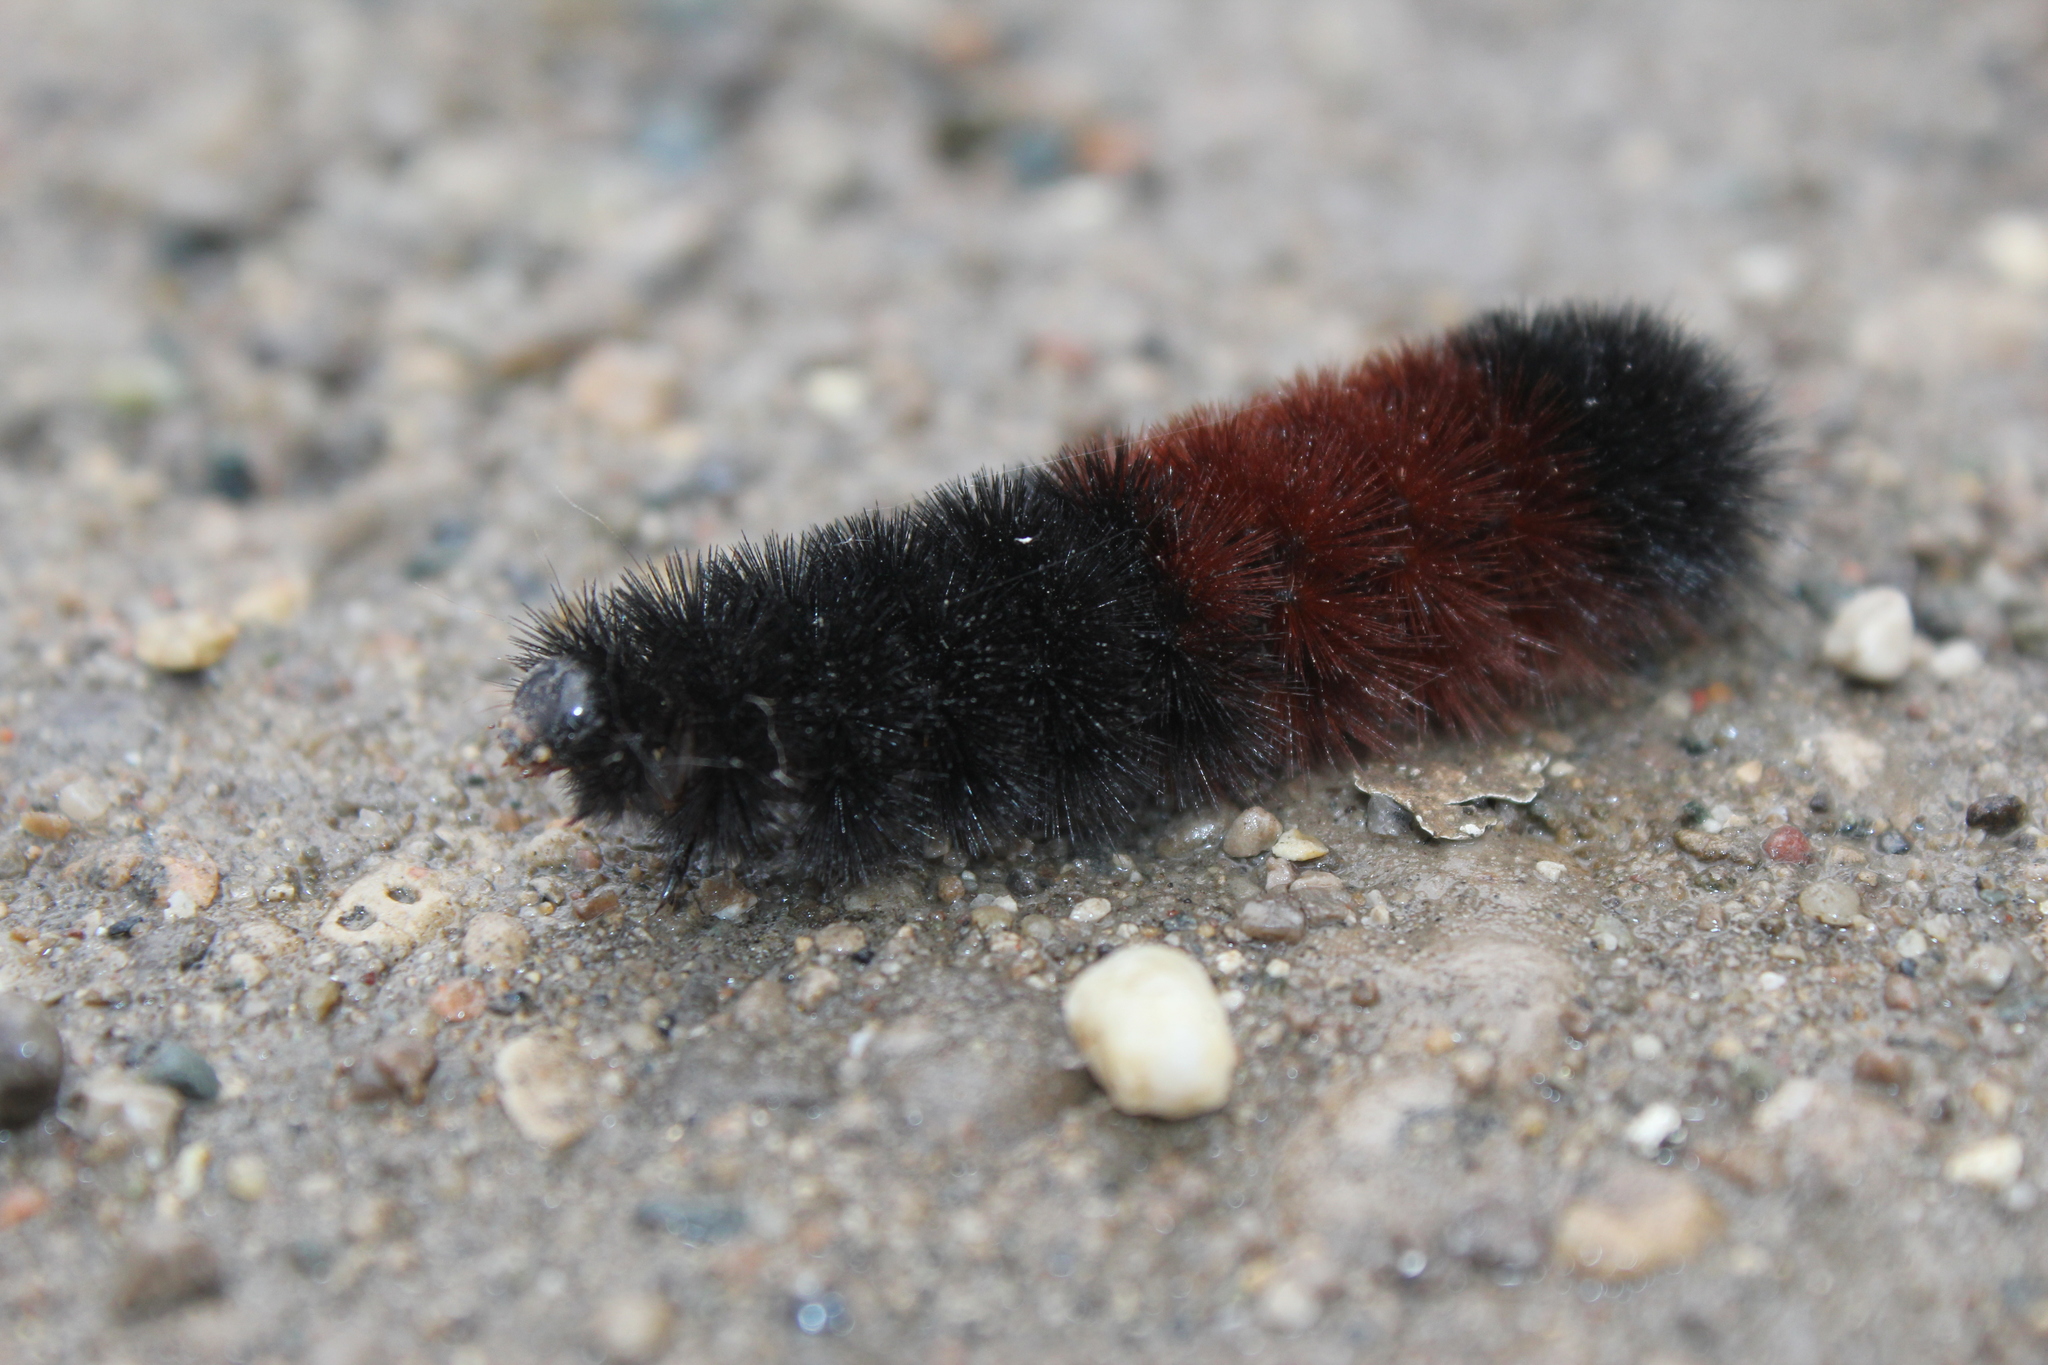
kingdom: Animalia
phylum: Arthropoda
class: Insecta
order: Lepidoptera
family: Erebidae
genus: Pyrrharctia
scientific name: Pyrrharctia isabella
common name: Isabella tiger moth
